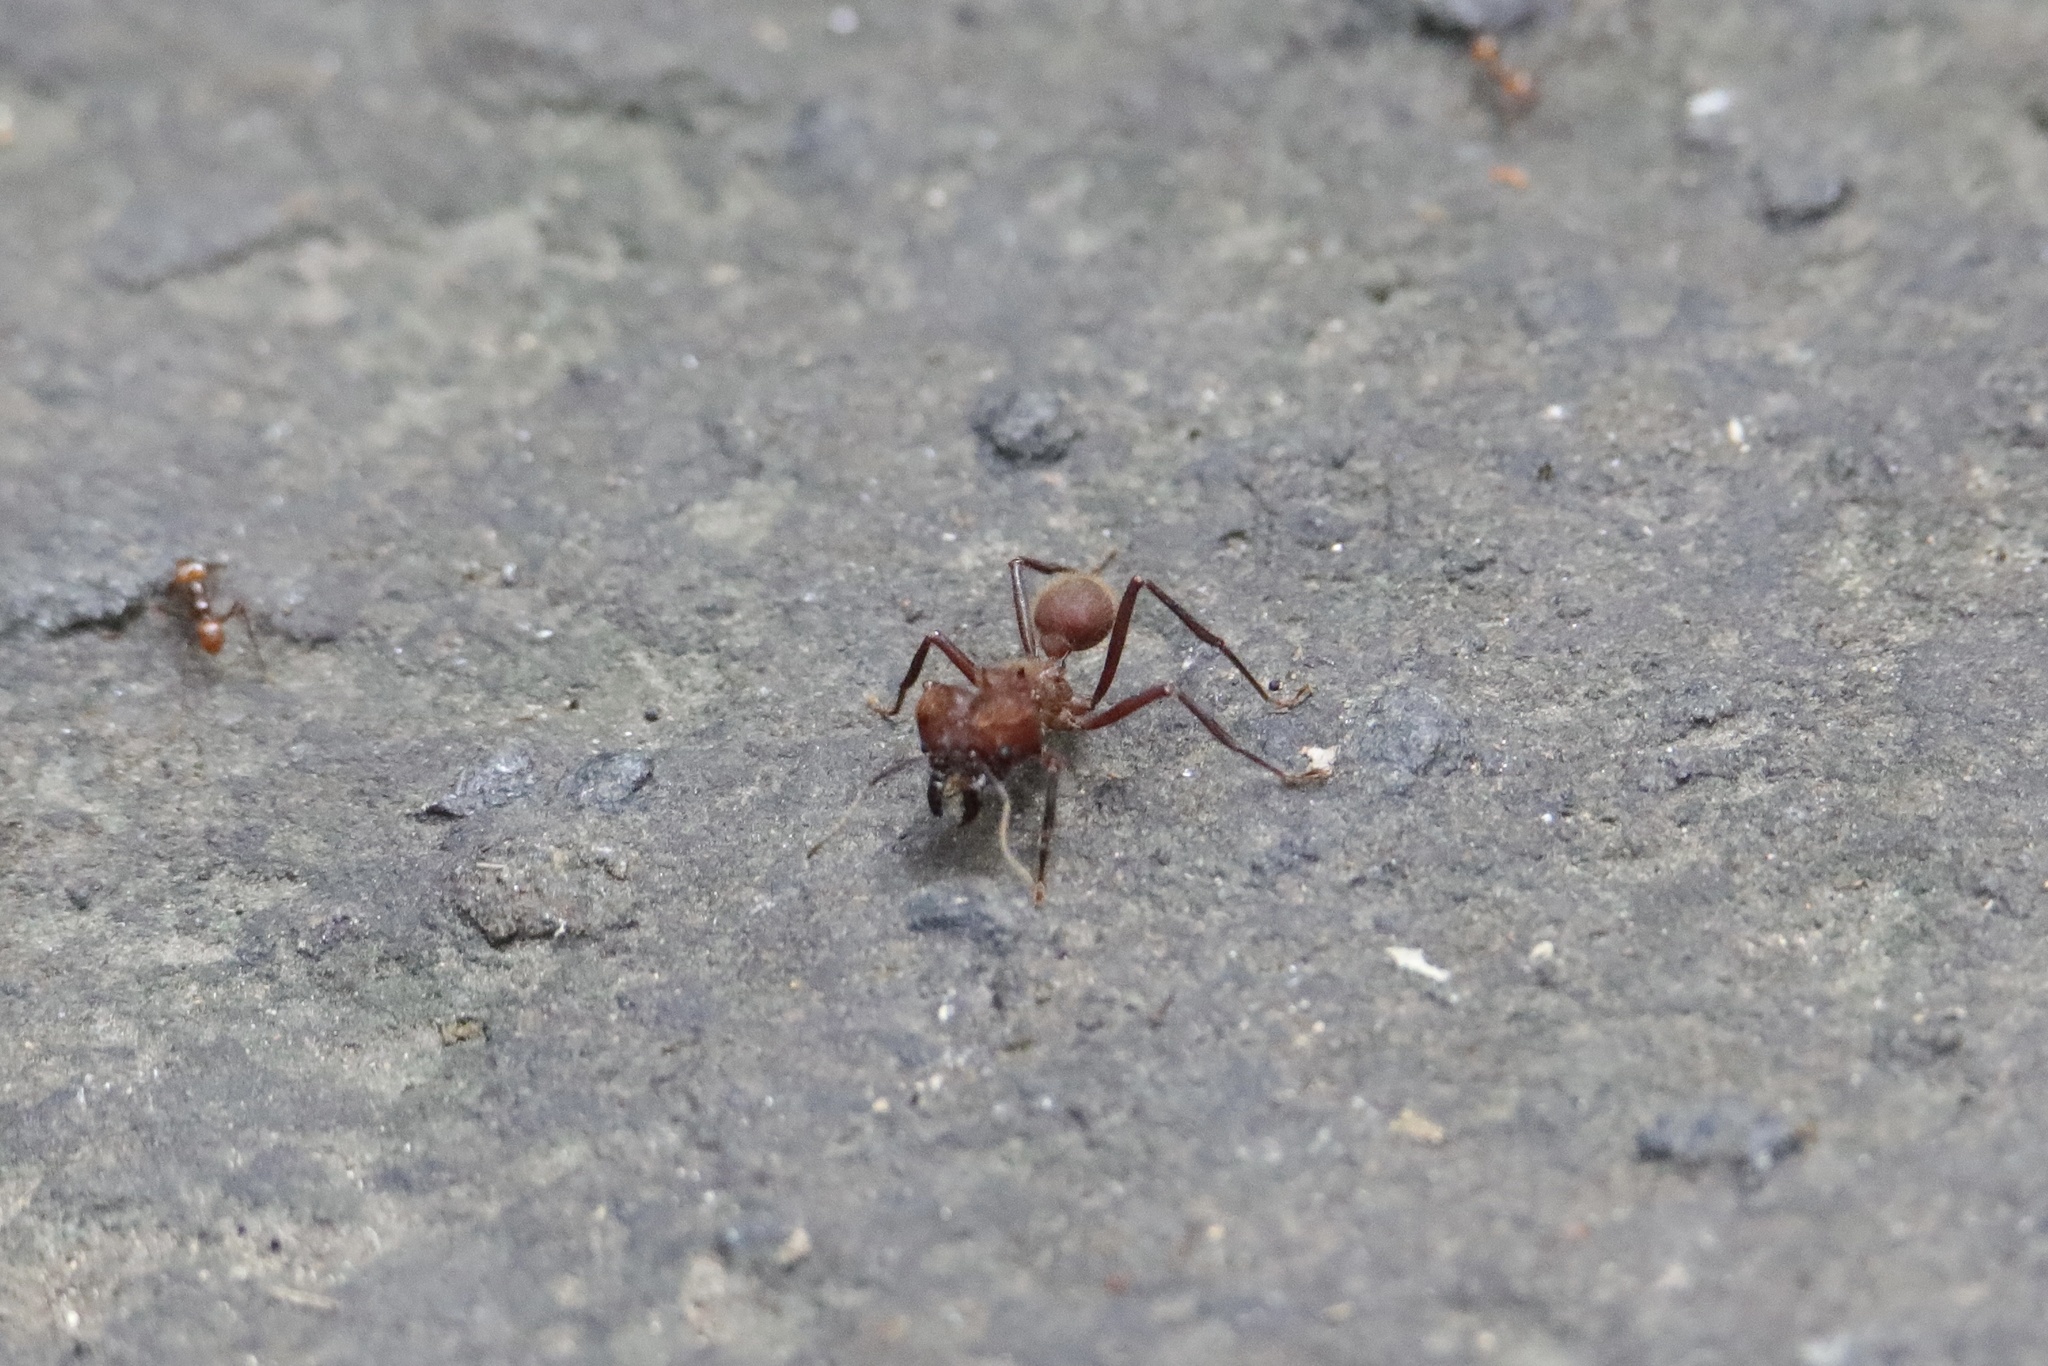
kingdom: Animalia
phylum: Arthropoda
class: Insecta
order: Hymenoptera
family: Formicidae
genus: Atta
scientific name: Atta cephalotes
